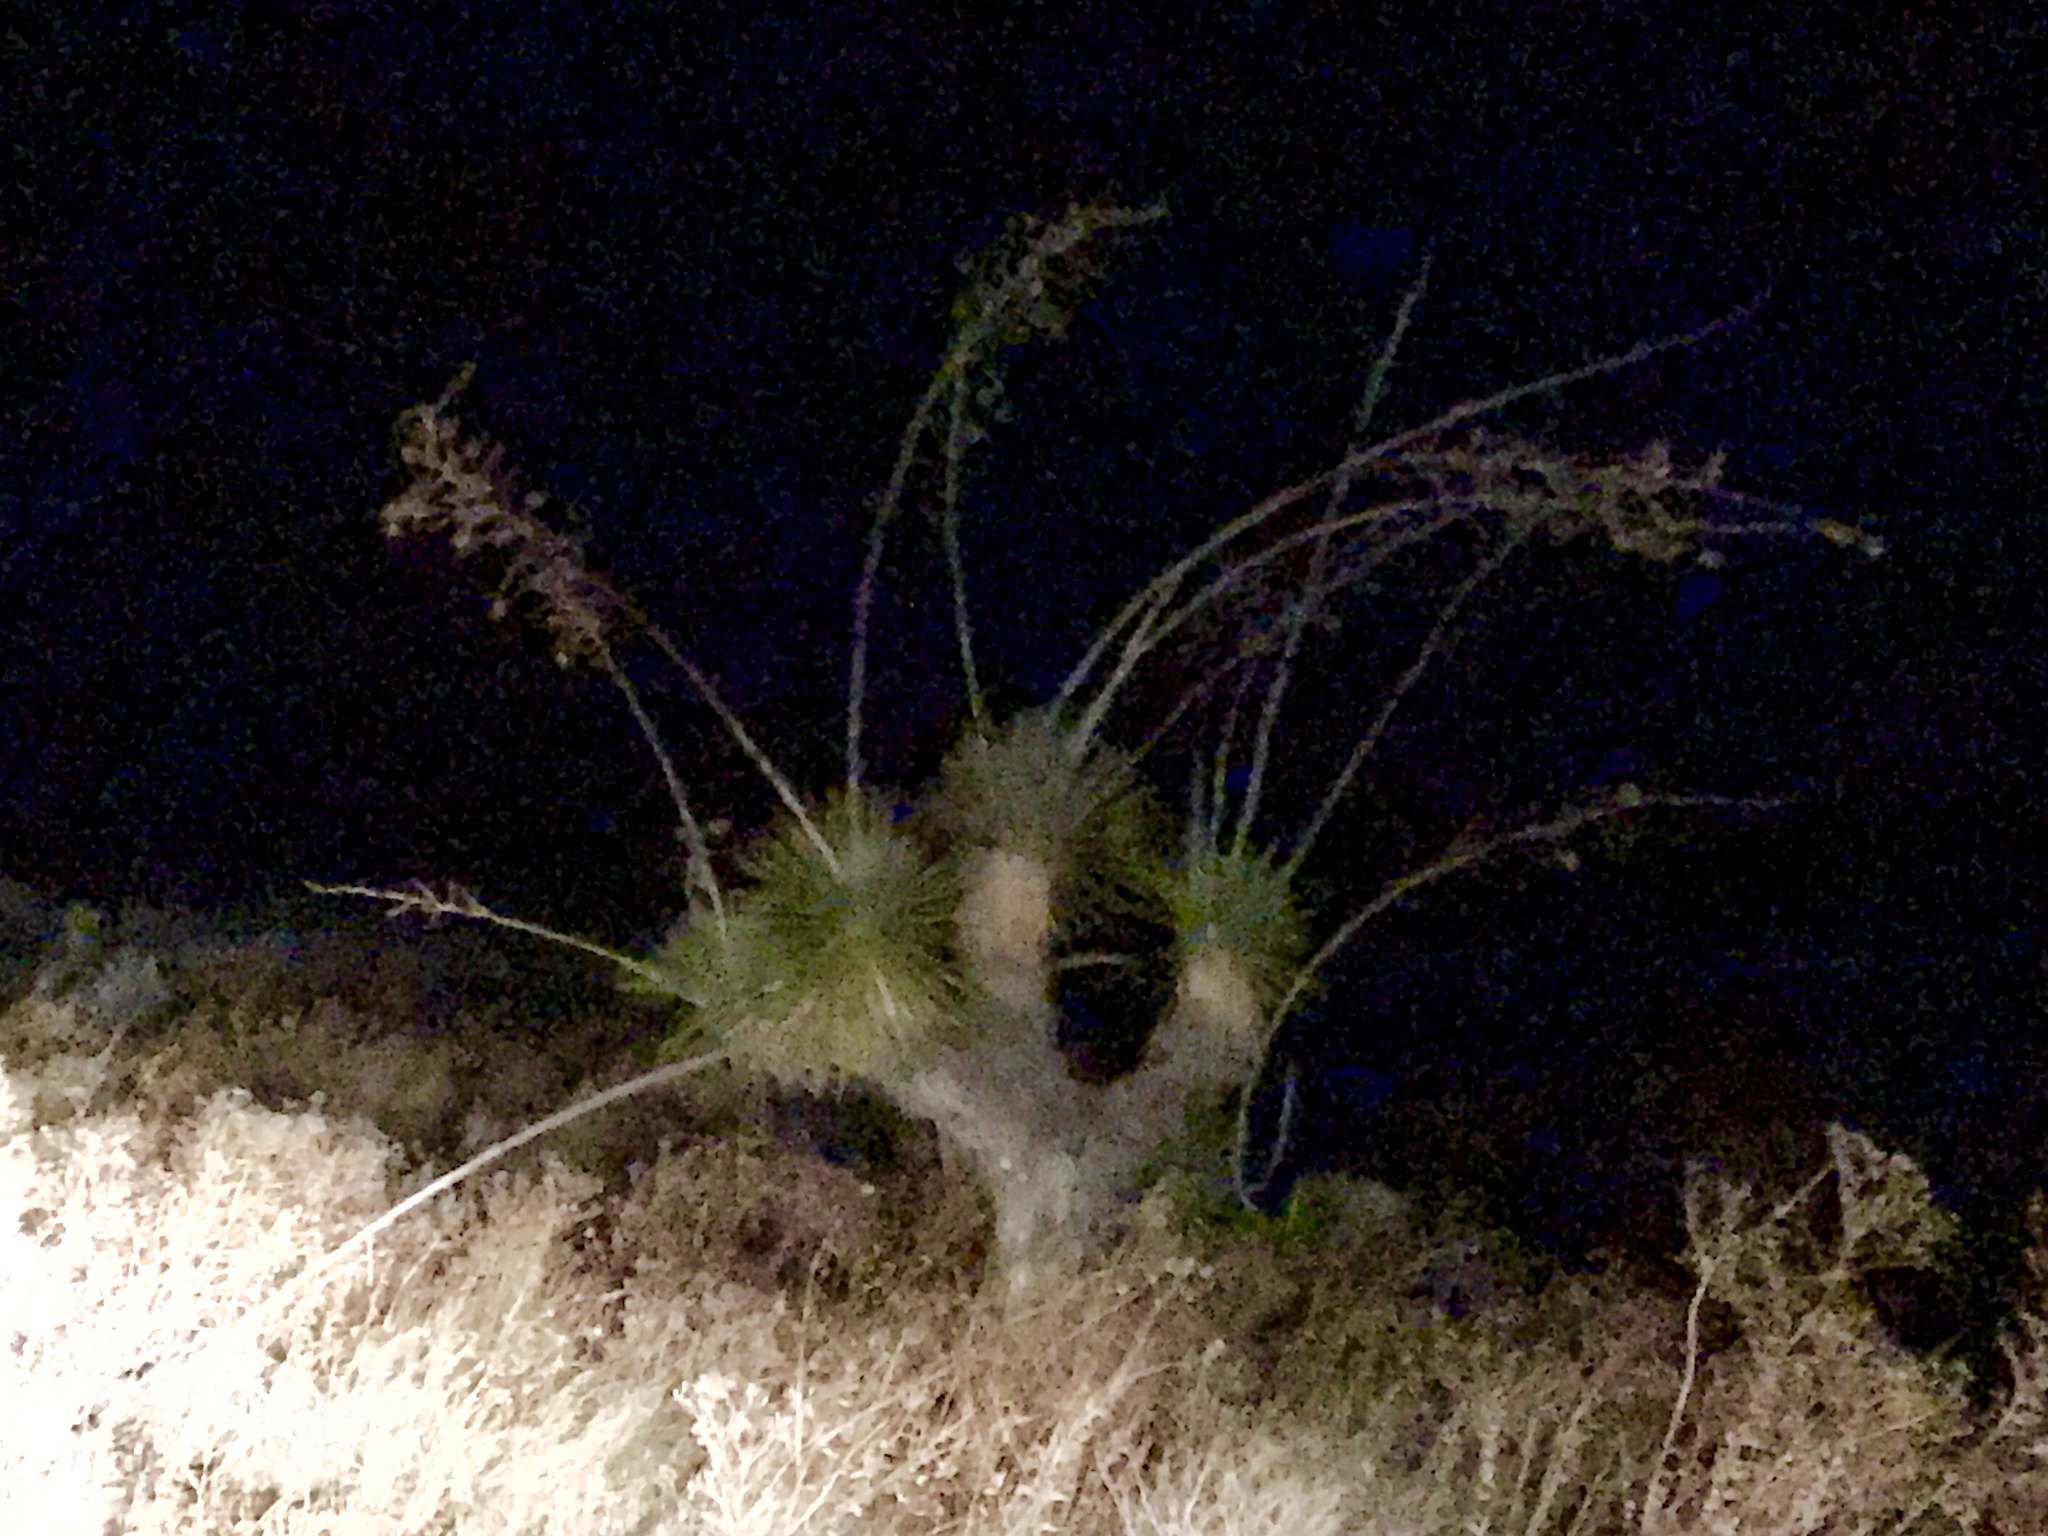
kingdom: Plantae
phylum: Tracheophyta
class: Liliopsida
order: Asparagales
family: Asparagaceae
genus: Yucca
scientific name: Yucca elata
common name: Palmella
